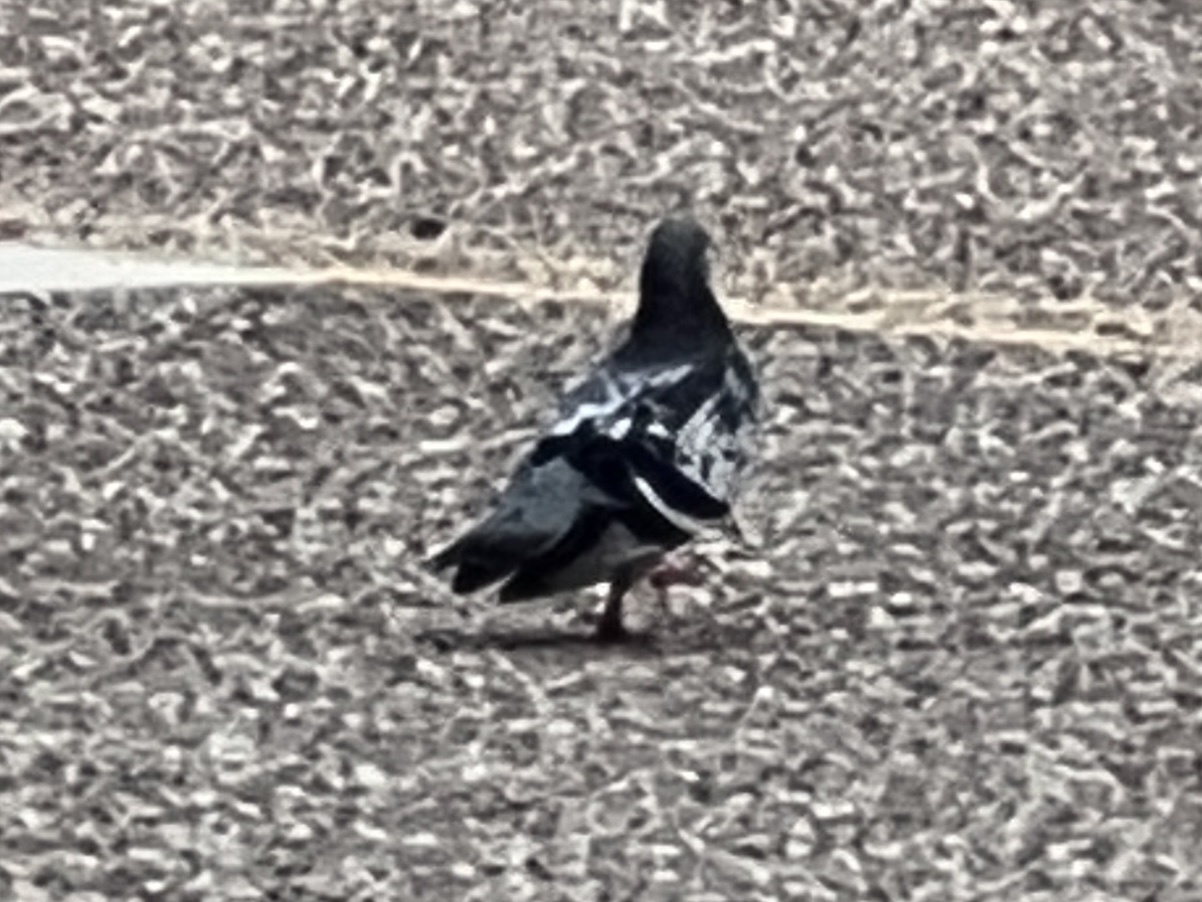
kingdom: Animalia
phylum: Chordata
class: Aves
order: Columbiformes
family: Columbidae
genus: Columba
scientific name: Columba livia
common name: Rock pigeon
